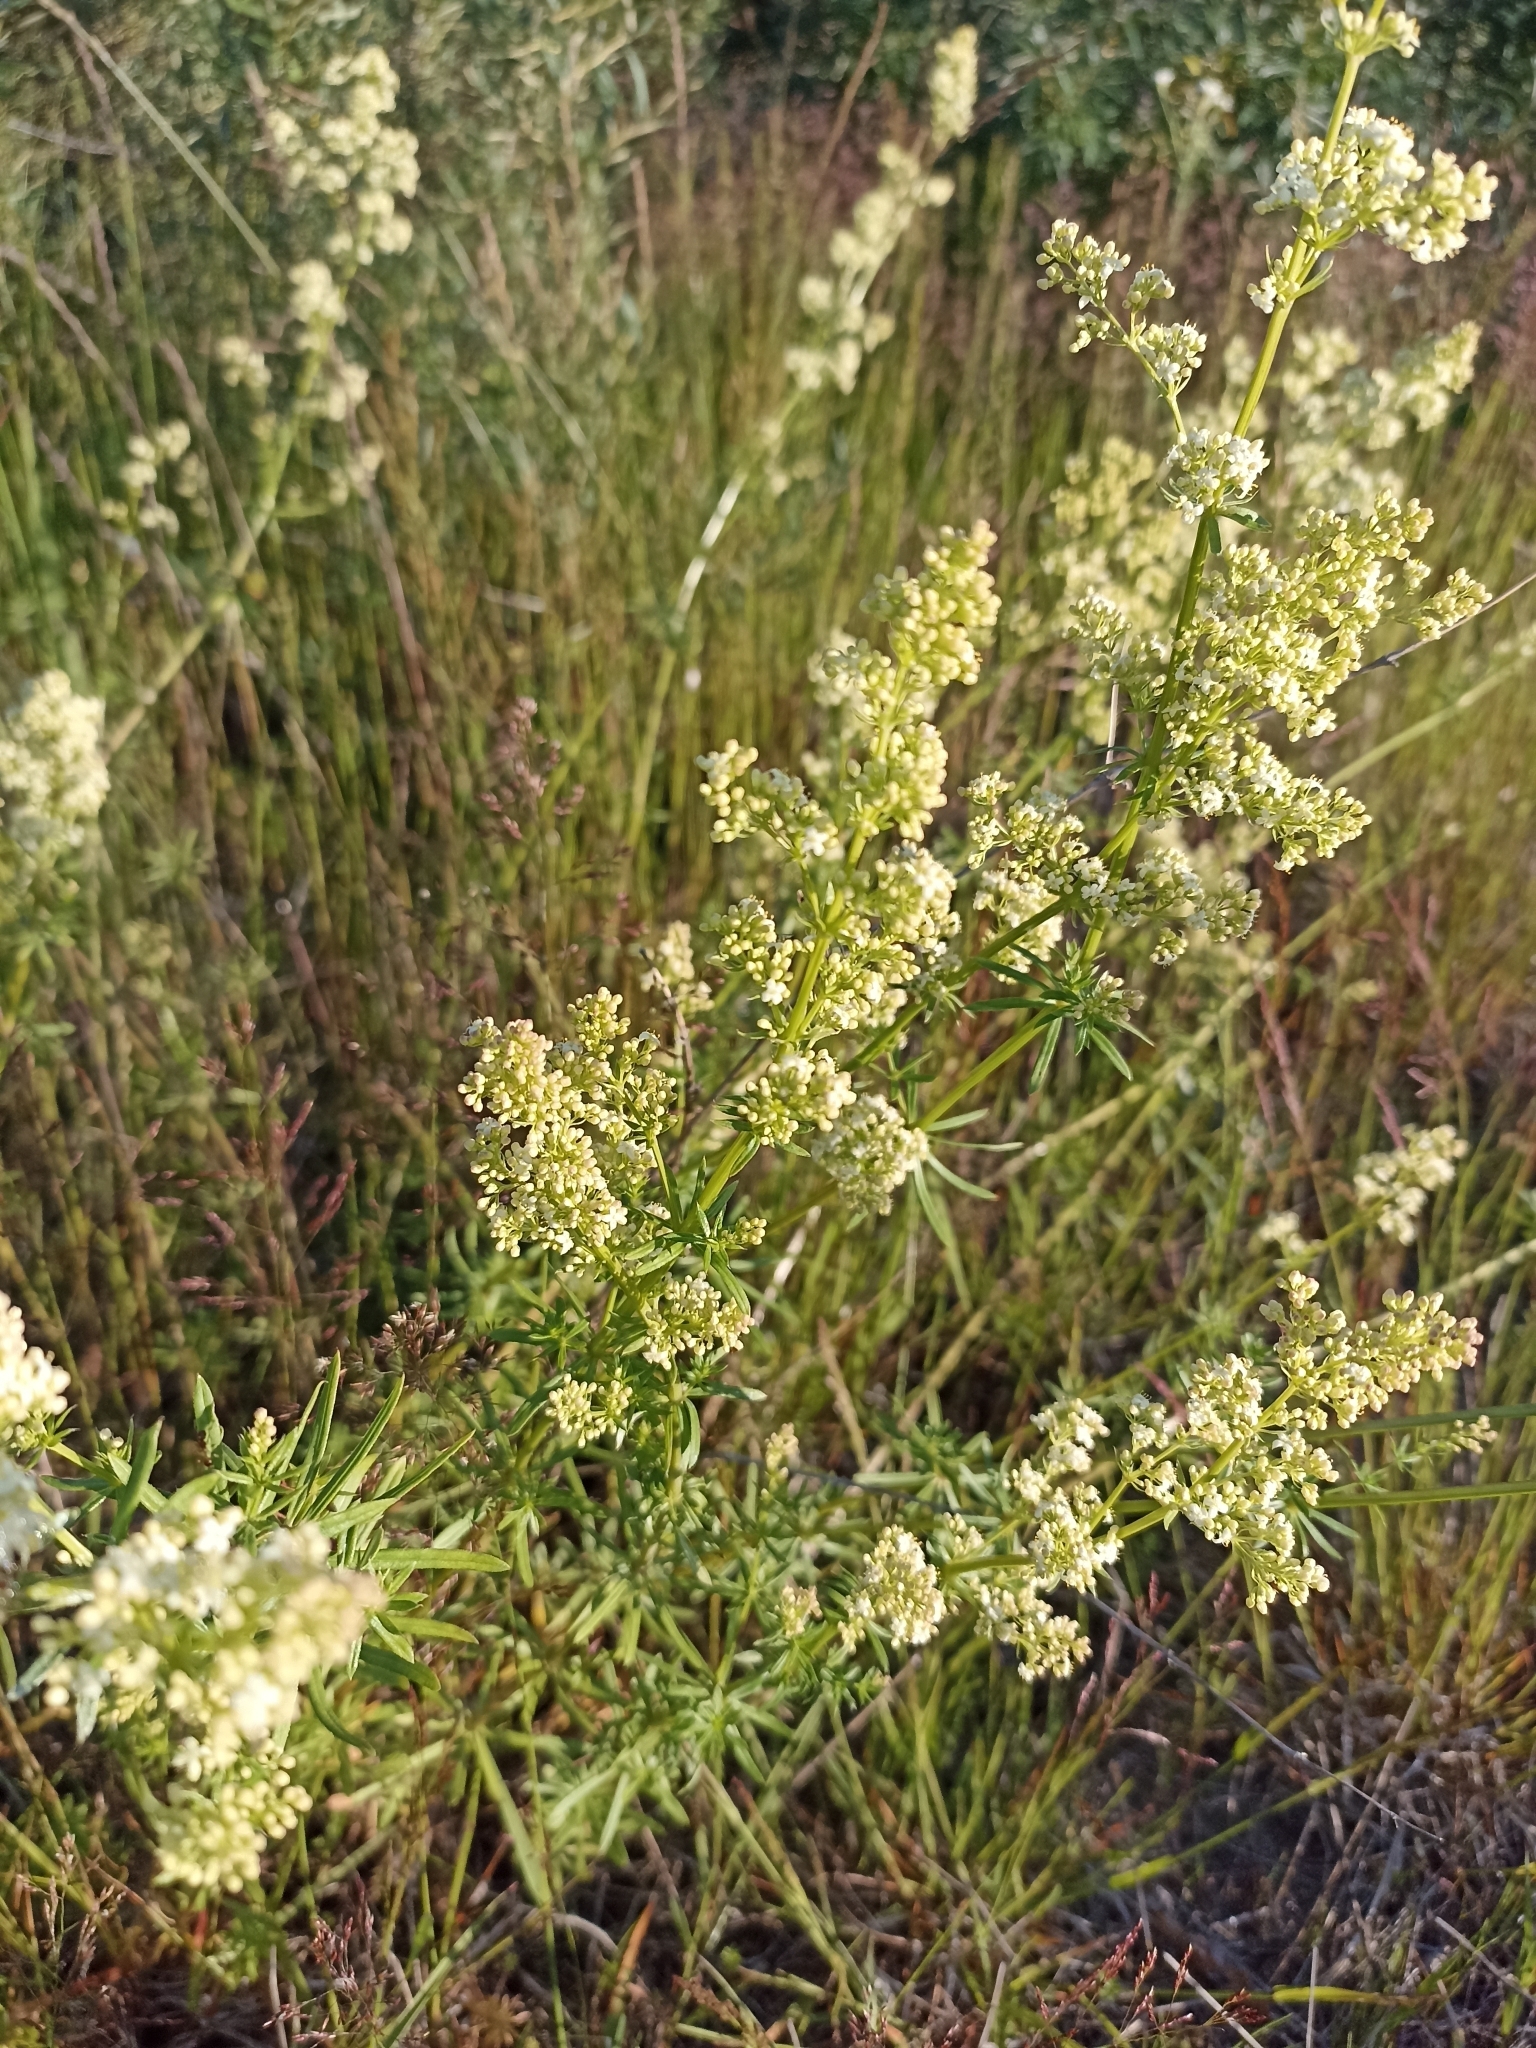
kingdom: Plantae
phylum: Tracheophyta
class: Magnoliopsida
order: Gentianales
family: Rubiaceae
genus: Galium
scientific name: Galium mollugo
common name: Hedge bedstraw
